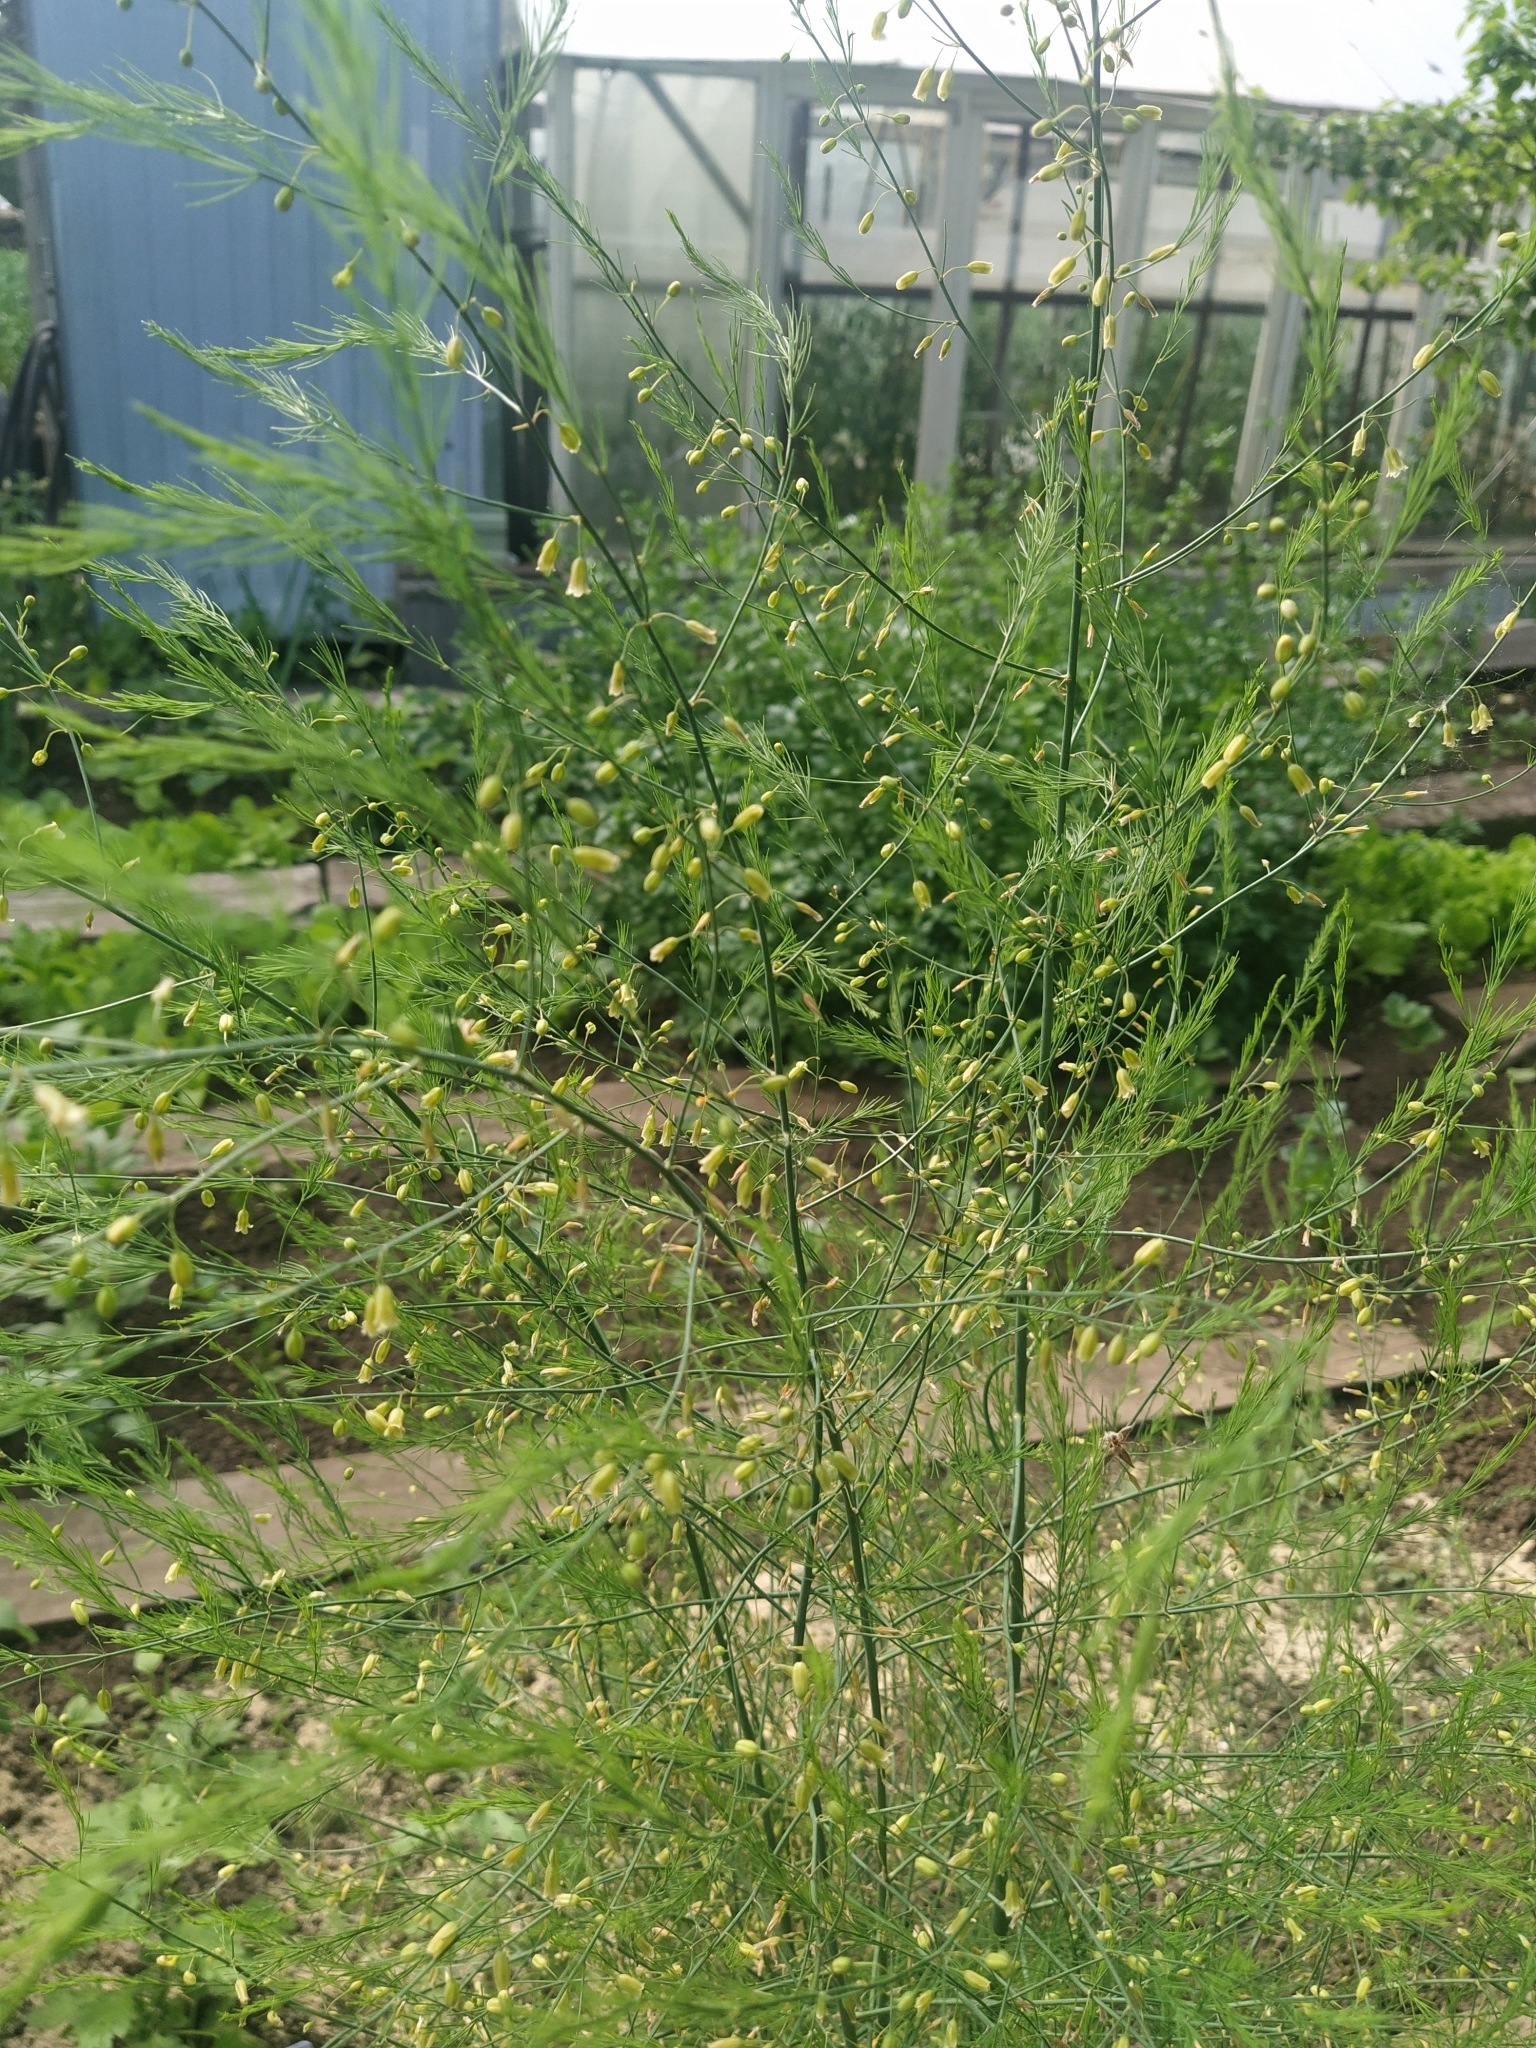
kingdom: Plantae
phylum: Tracheophyta
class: Liliopsida
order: Asparagales
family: Asparagaceae
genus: Asparagus
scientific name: Asparagus officinalis
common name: Garden asparagus
